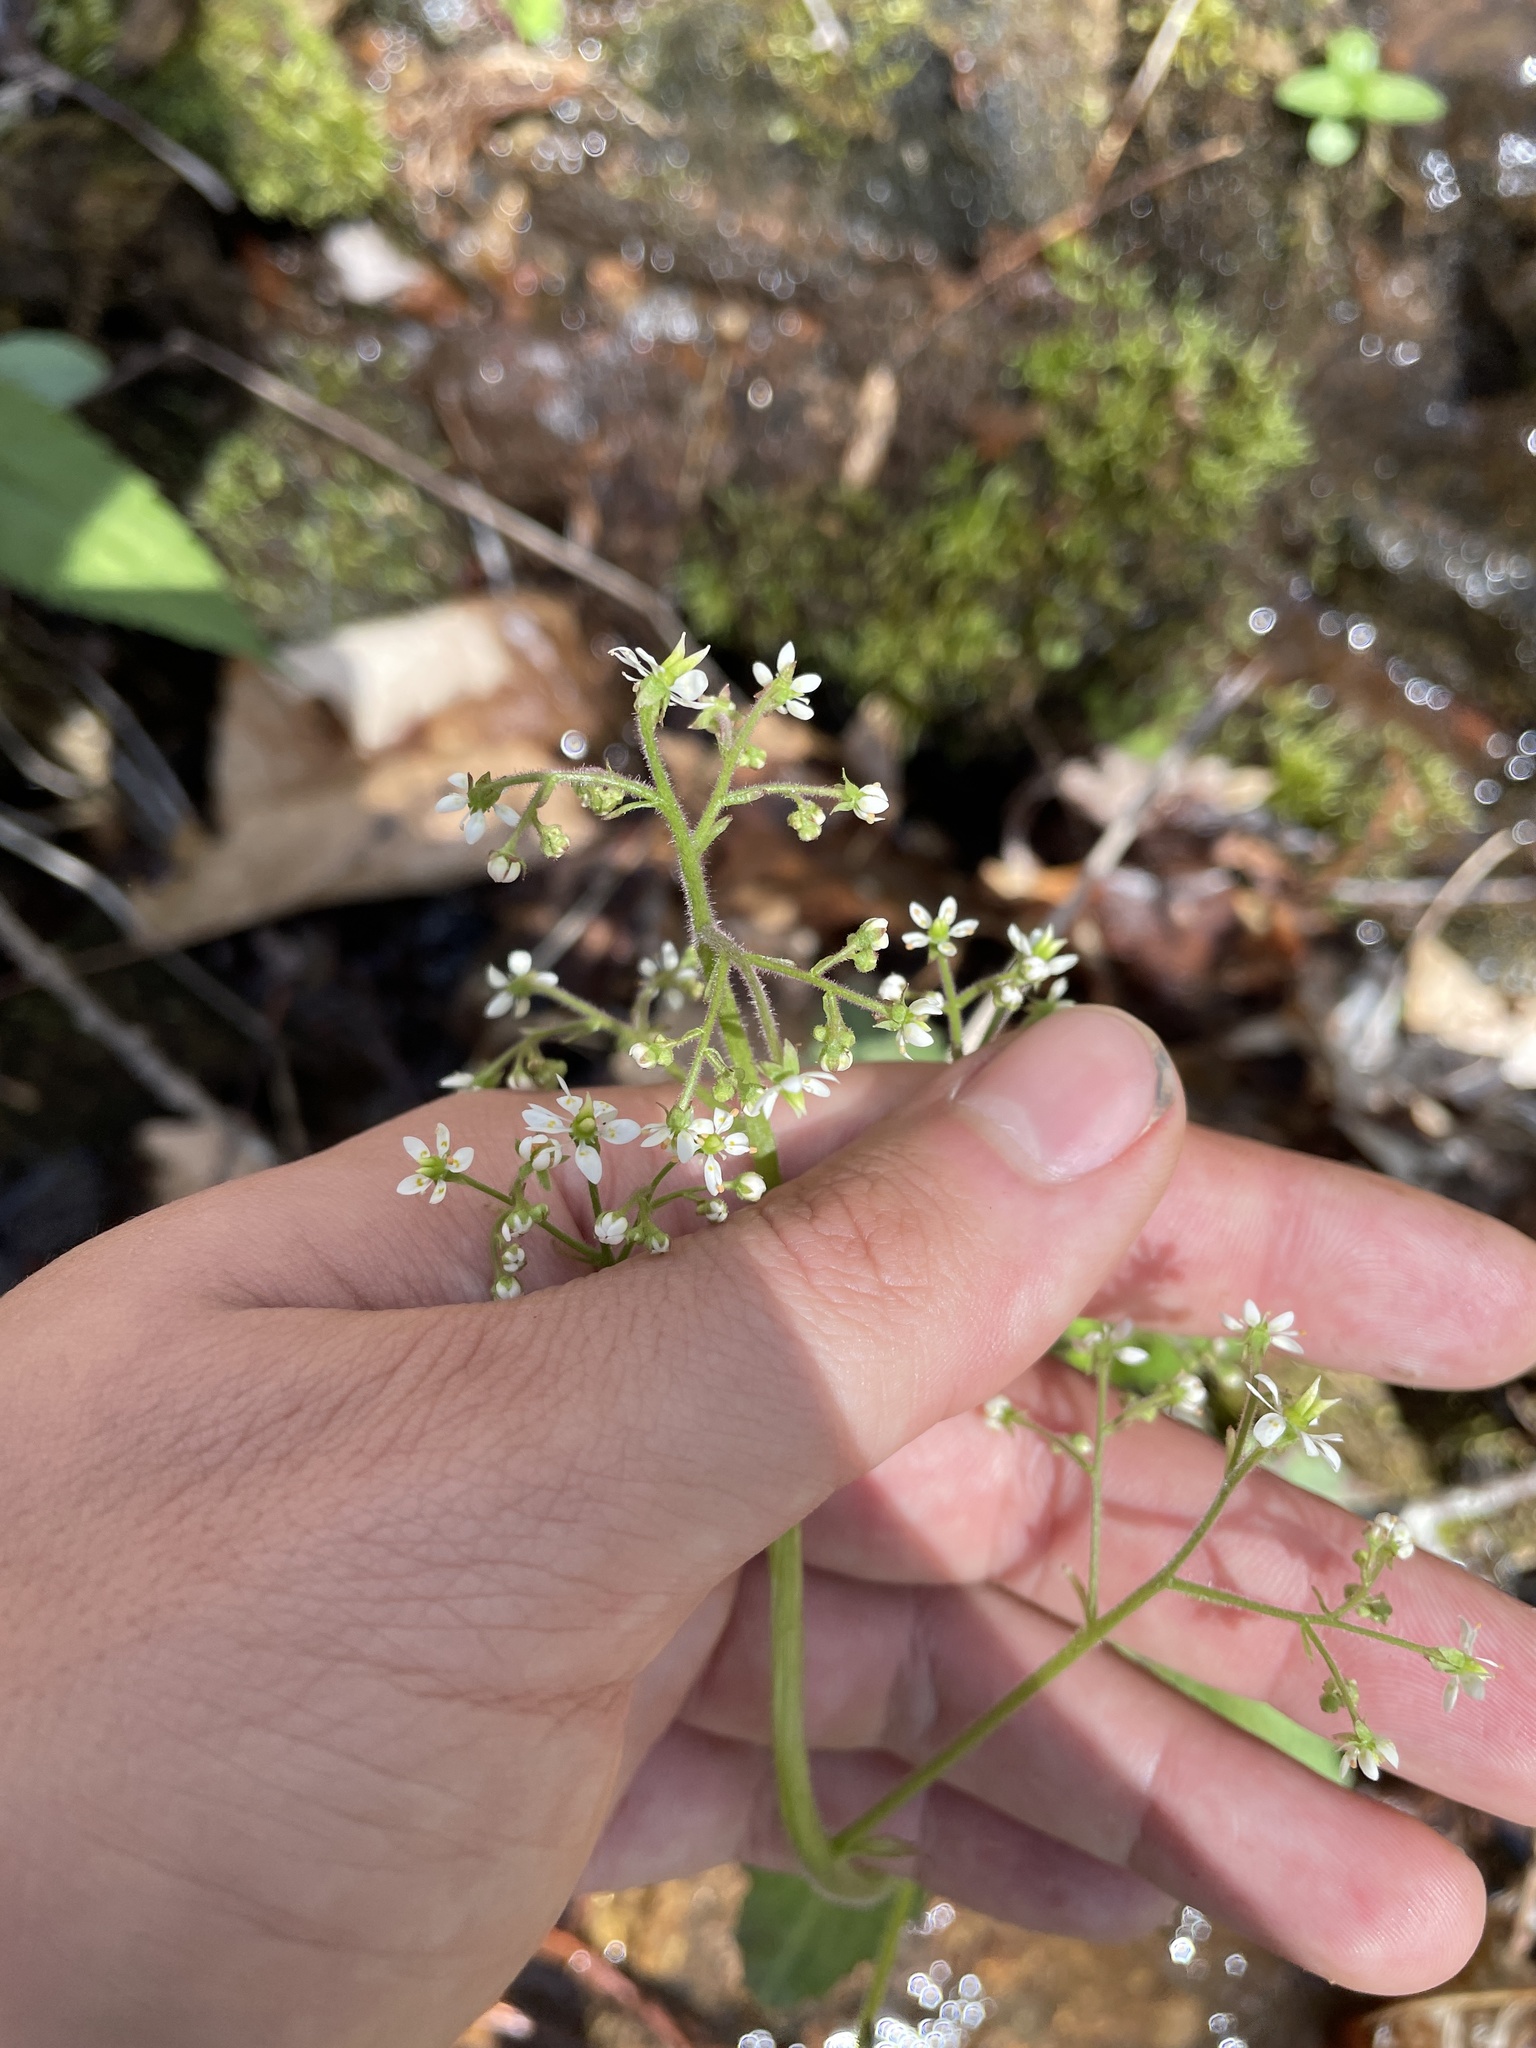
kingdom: Plantae
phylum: Tracheophyta
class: Magnoliopsida
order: Saxifragales
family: Saxifragaceae
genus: Micranthes
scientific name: Micranthes micranthidifolia
